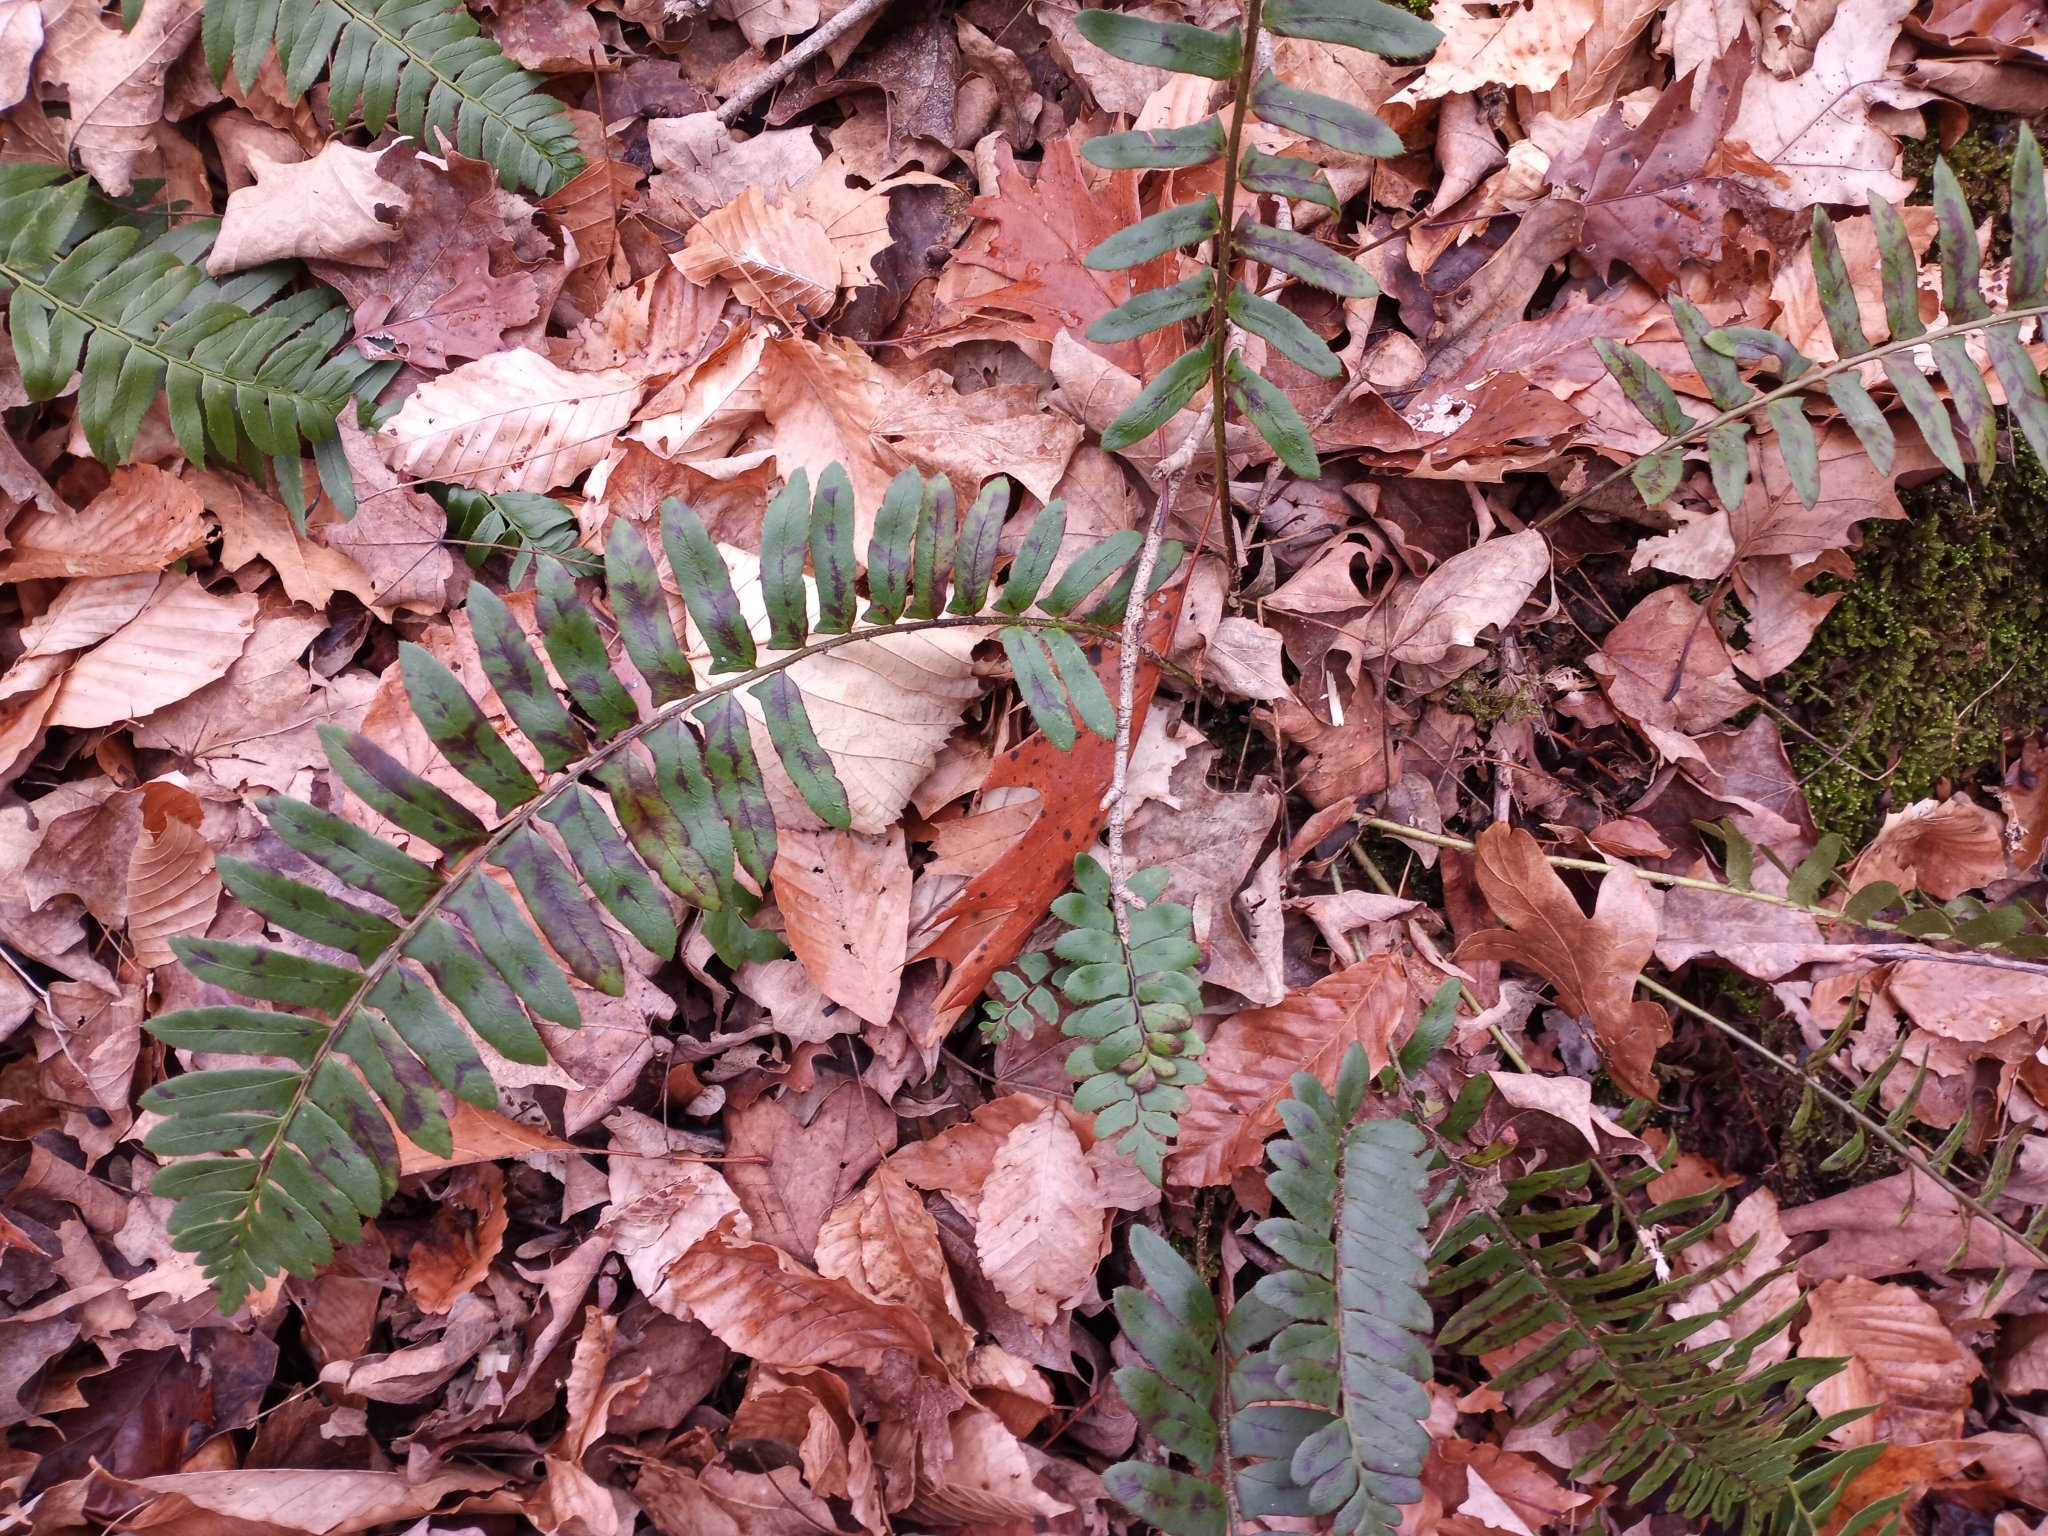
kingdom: Plantae
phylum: Tracheophyta
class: Polypodiopsida
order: Polypodiales
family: Dryopteridaceae
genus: Polystichum
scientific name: Polystichum acrostichoides
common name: Christmas fern
